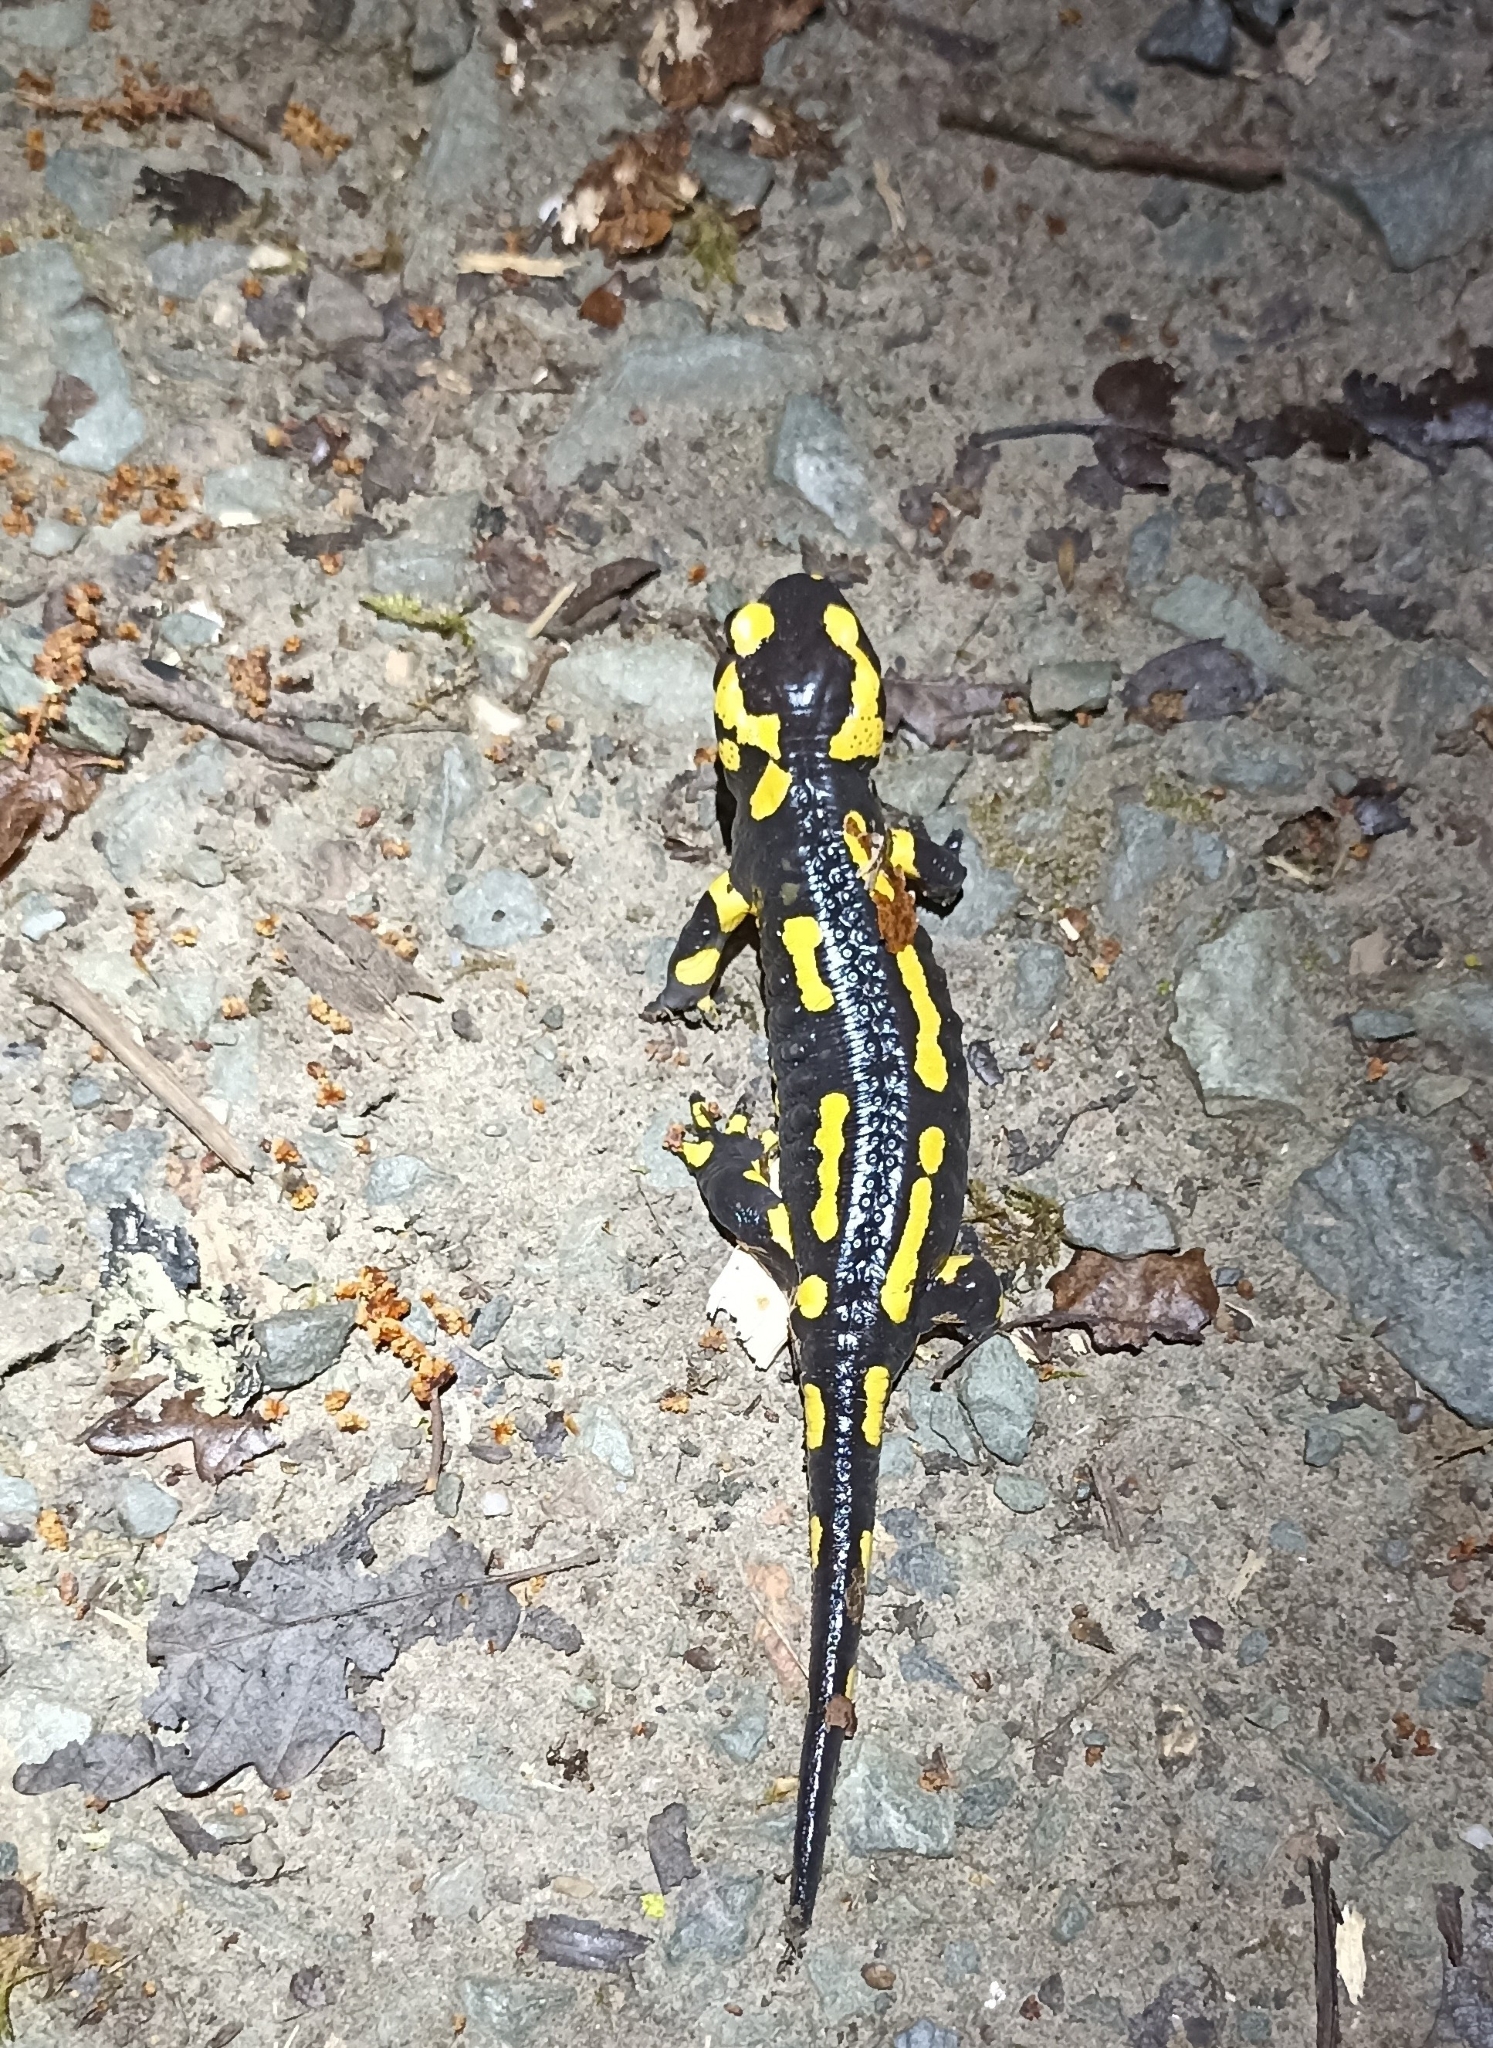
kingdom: Animalia
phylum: Chordata
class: Amphibia
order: Caudata
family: Salamandridae
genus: Salamandra
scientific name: Salamandra salamandra
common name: Fire salamander
